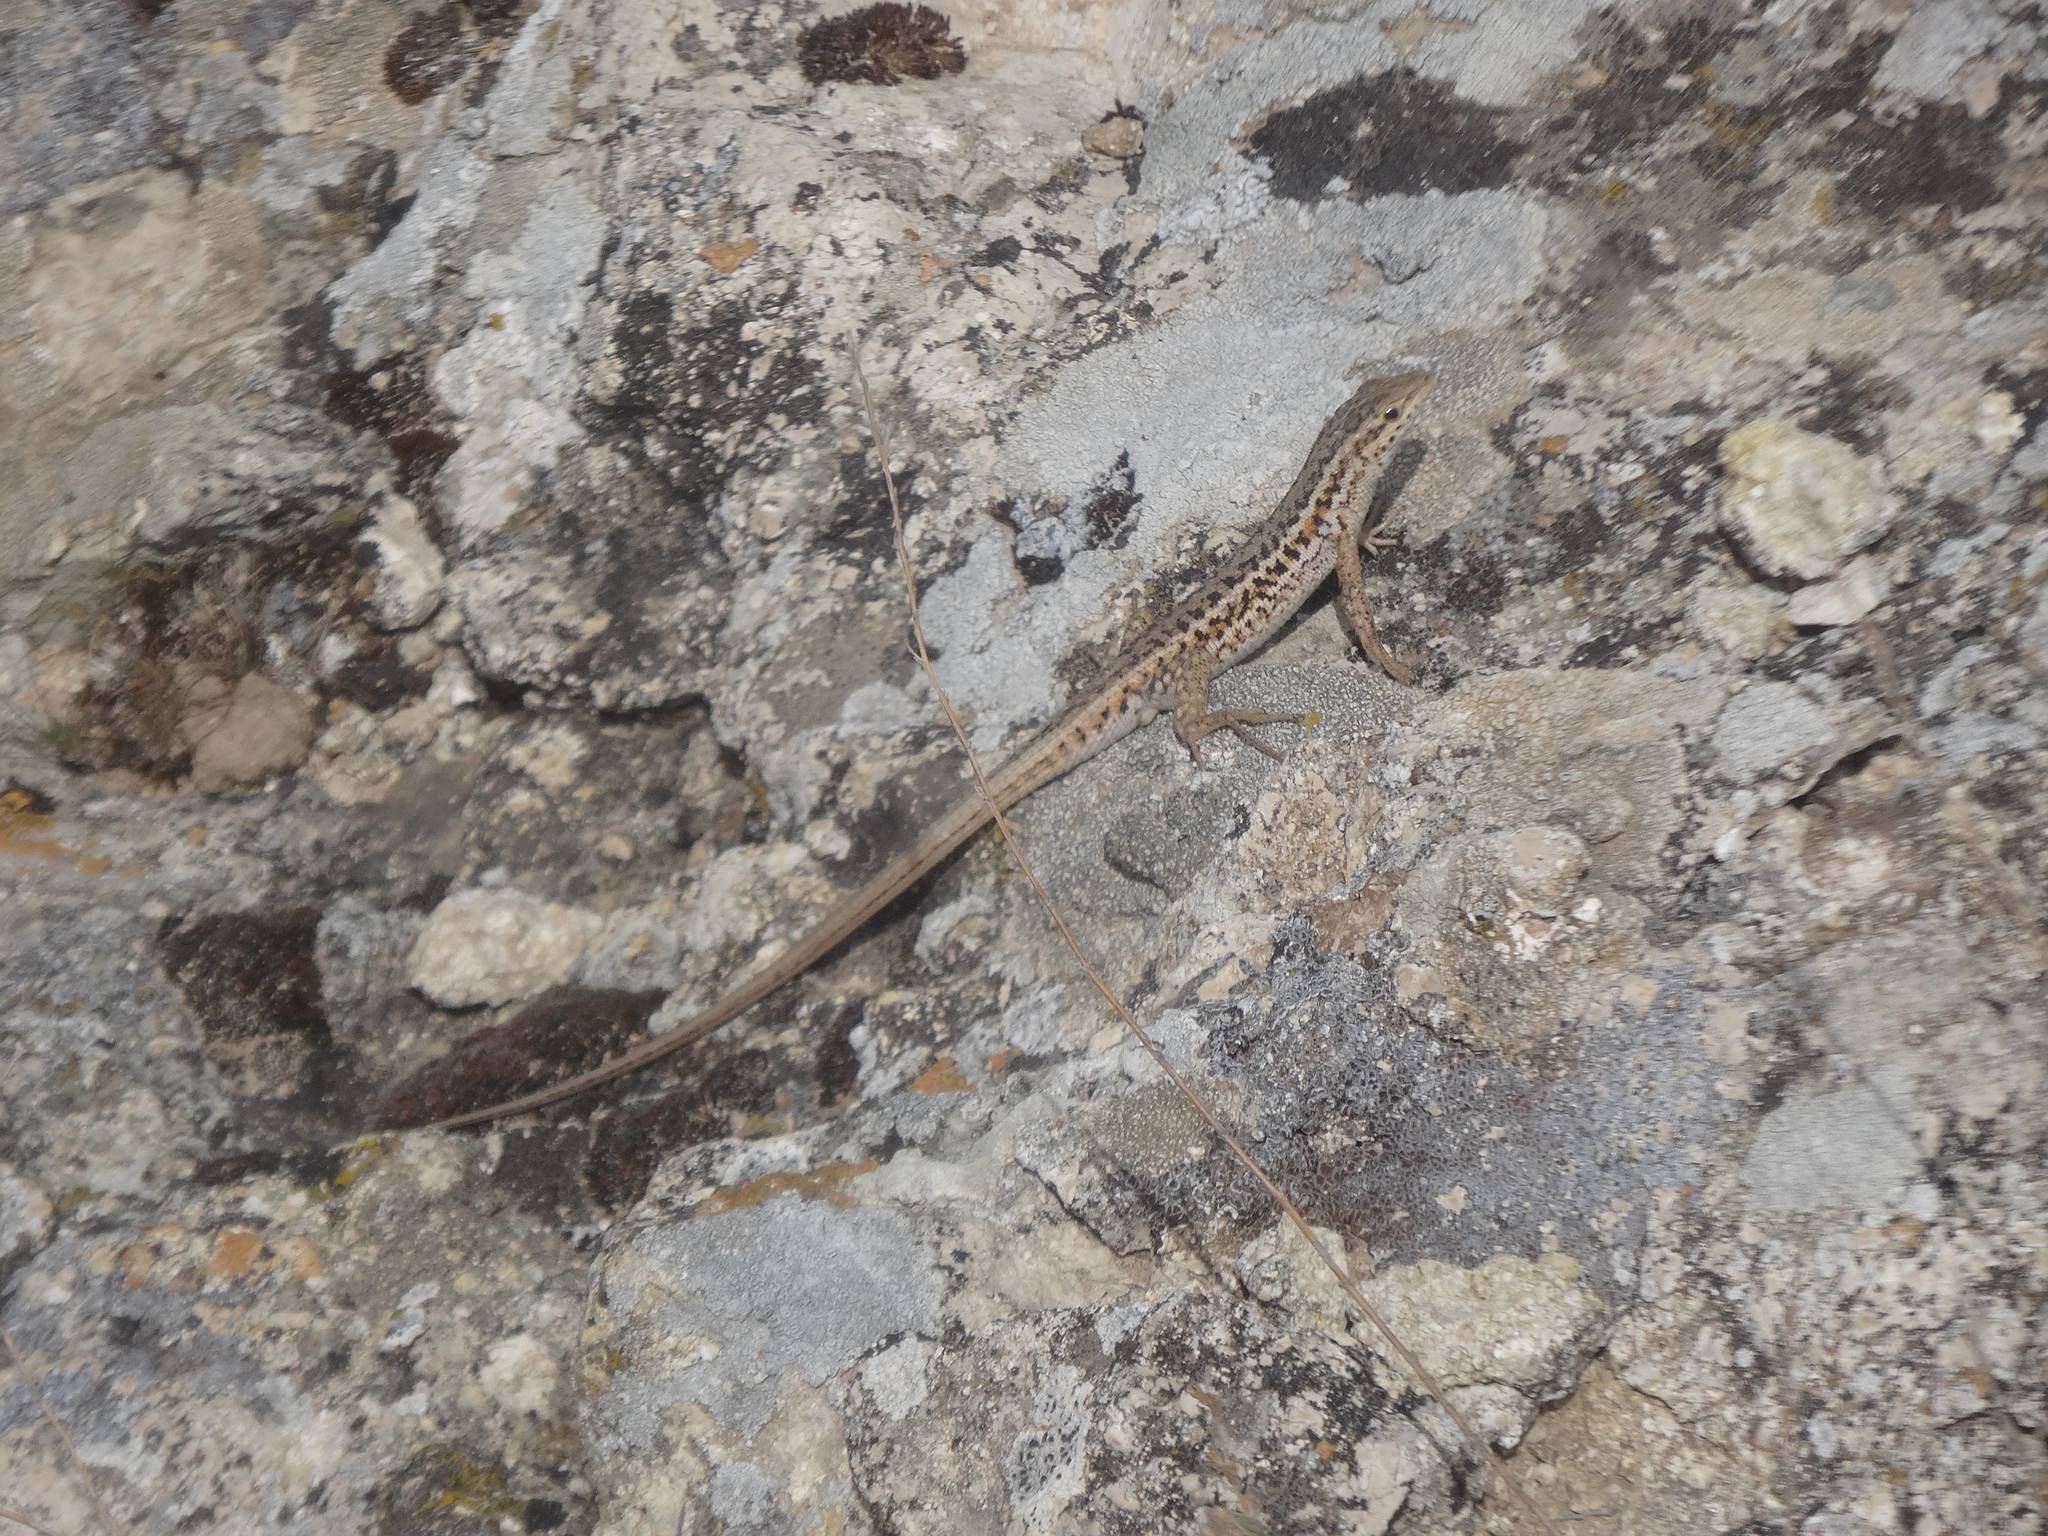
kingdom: Animalia
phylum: Chordata
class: Squamata
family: Lacertidae
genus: Ophisops
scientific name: Ophisops elegans
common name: Snake-eyed lizard
